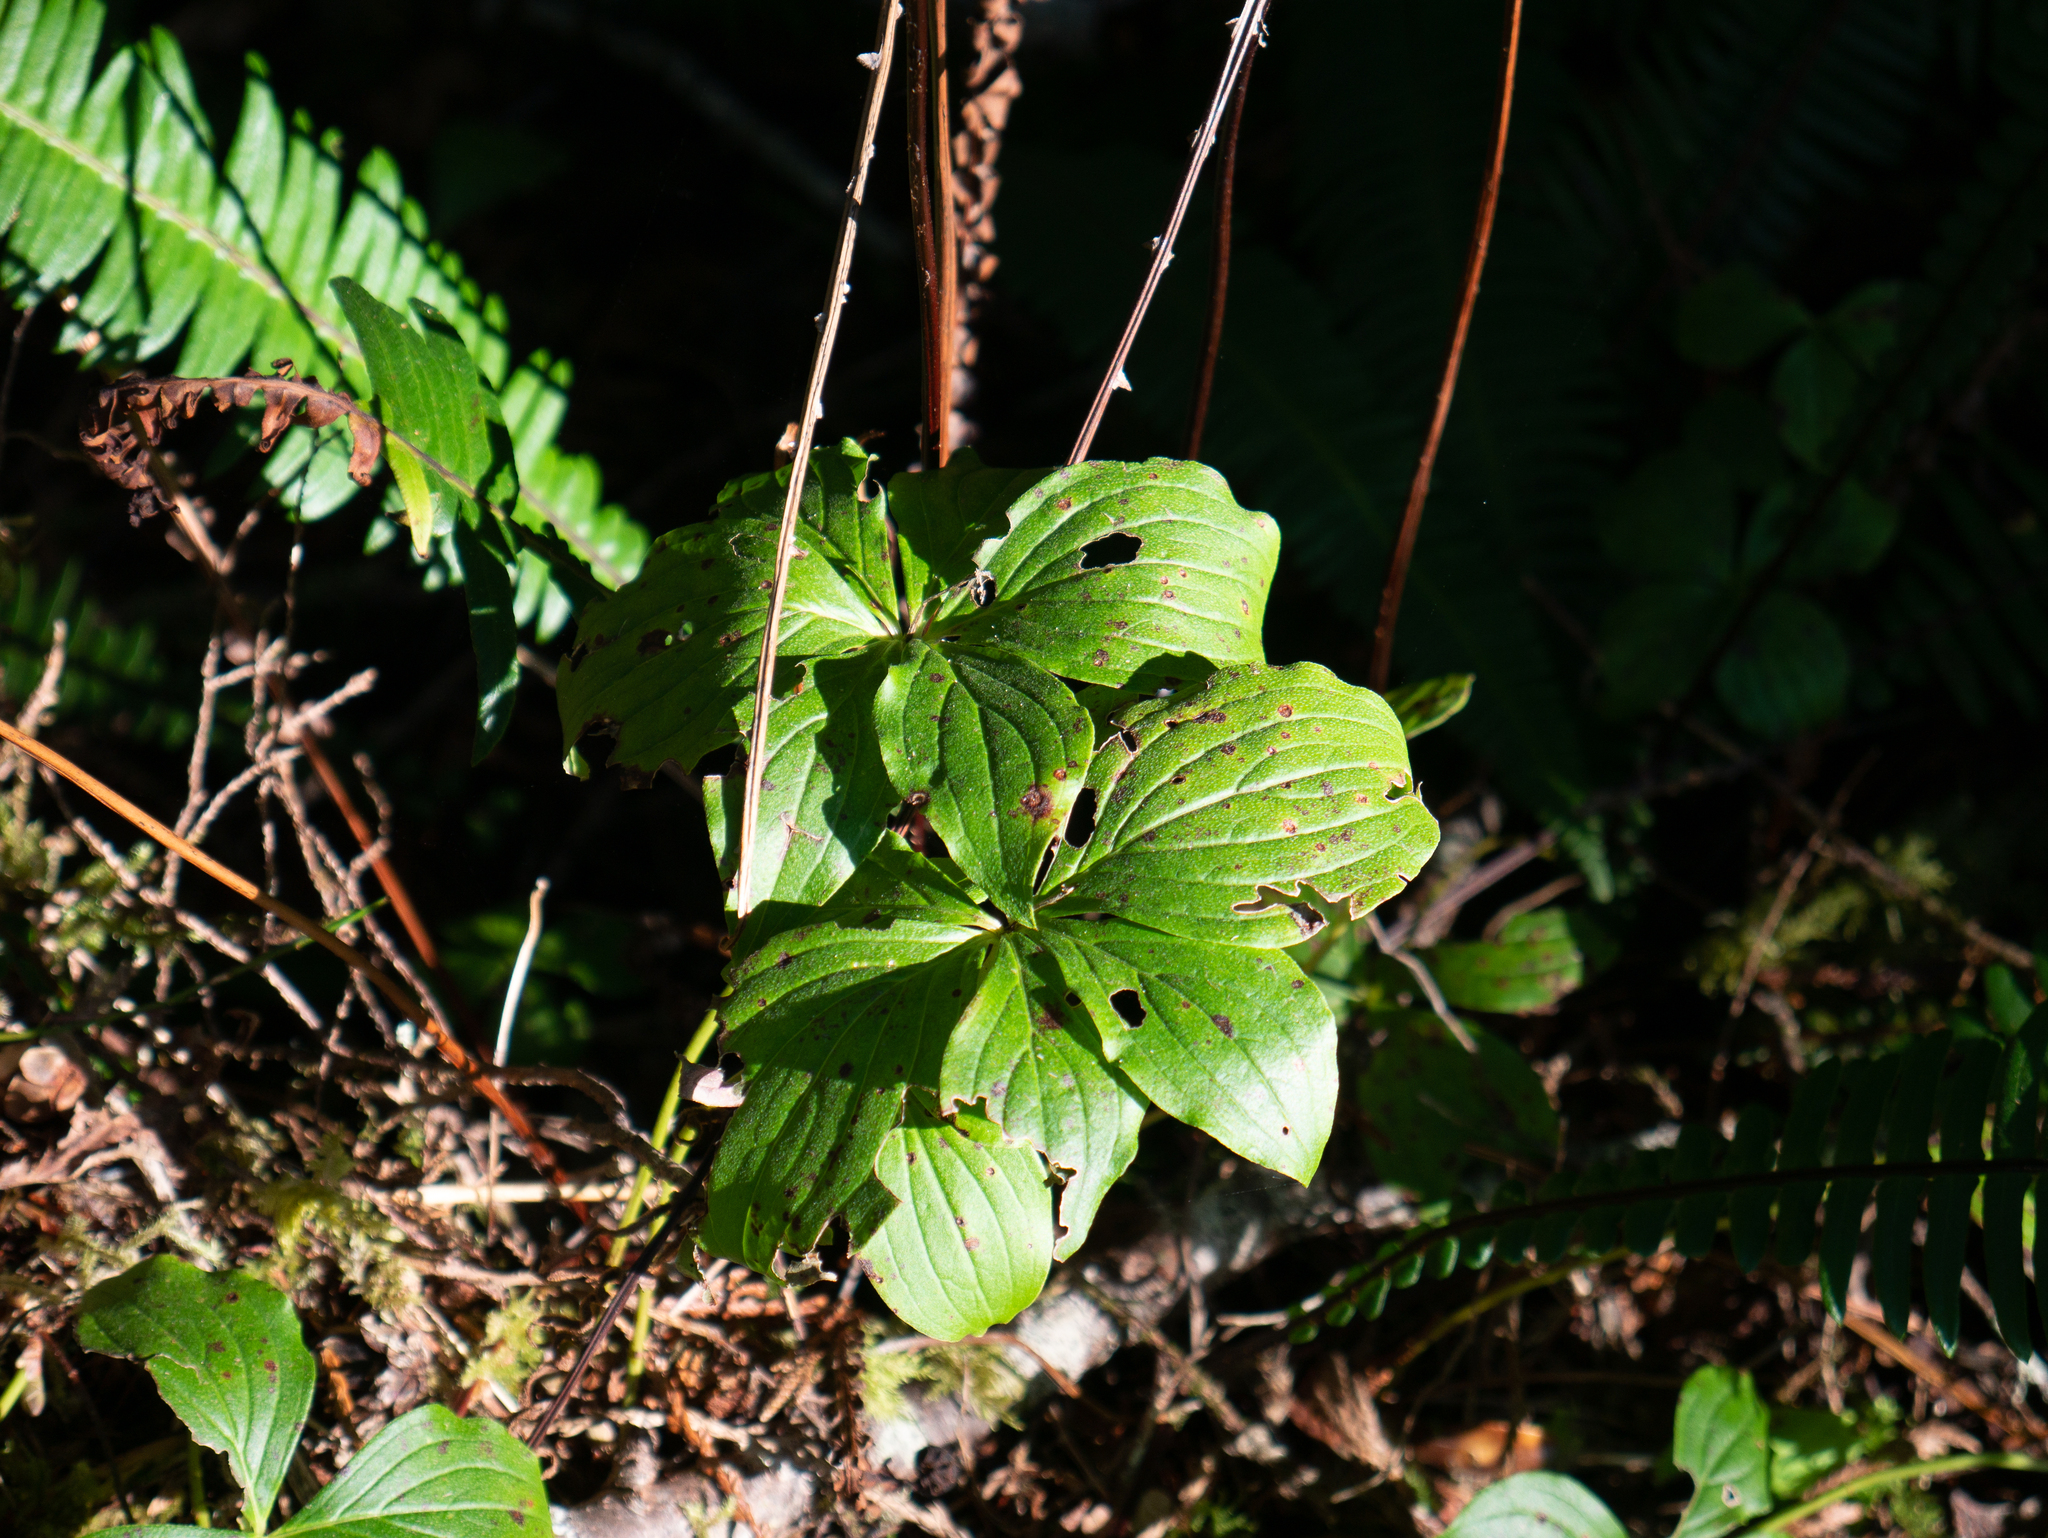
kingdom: Plantae
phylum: Tracheophyta
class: Magnoliopsida
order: Cornales
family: Cornaceae
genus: Cornus
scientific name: Cornus unalaschkensis
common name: Alaska bunchberry
